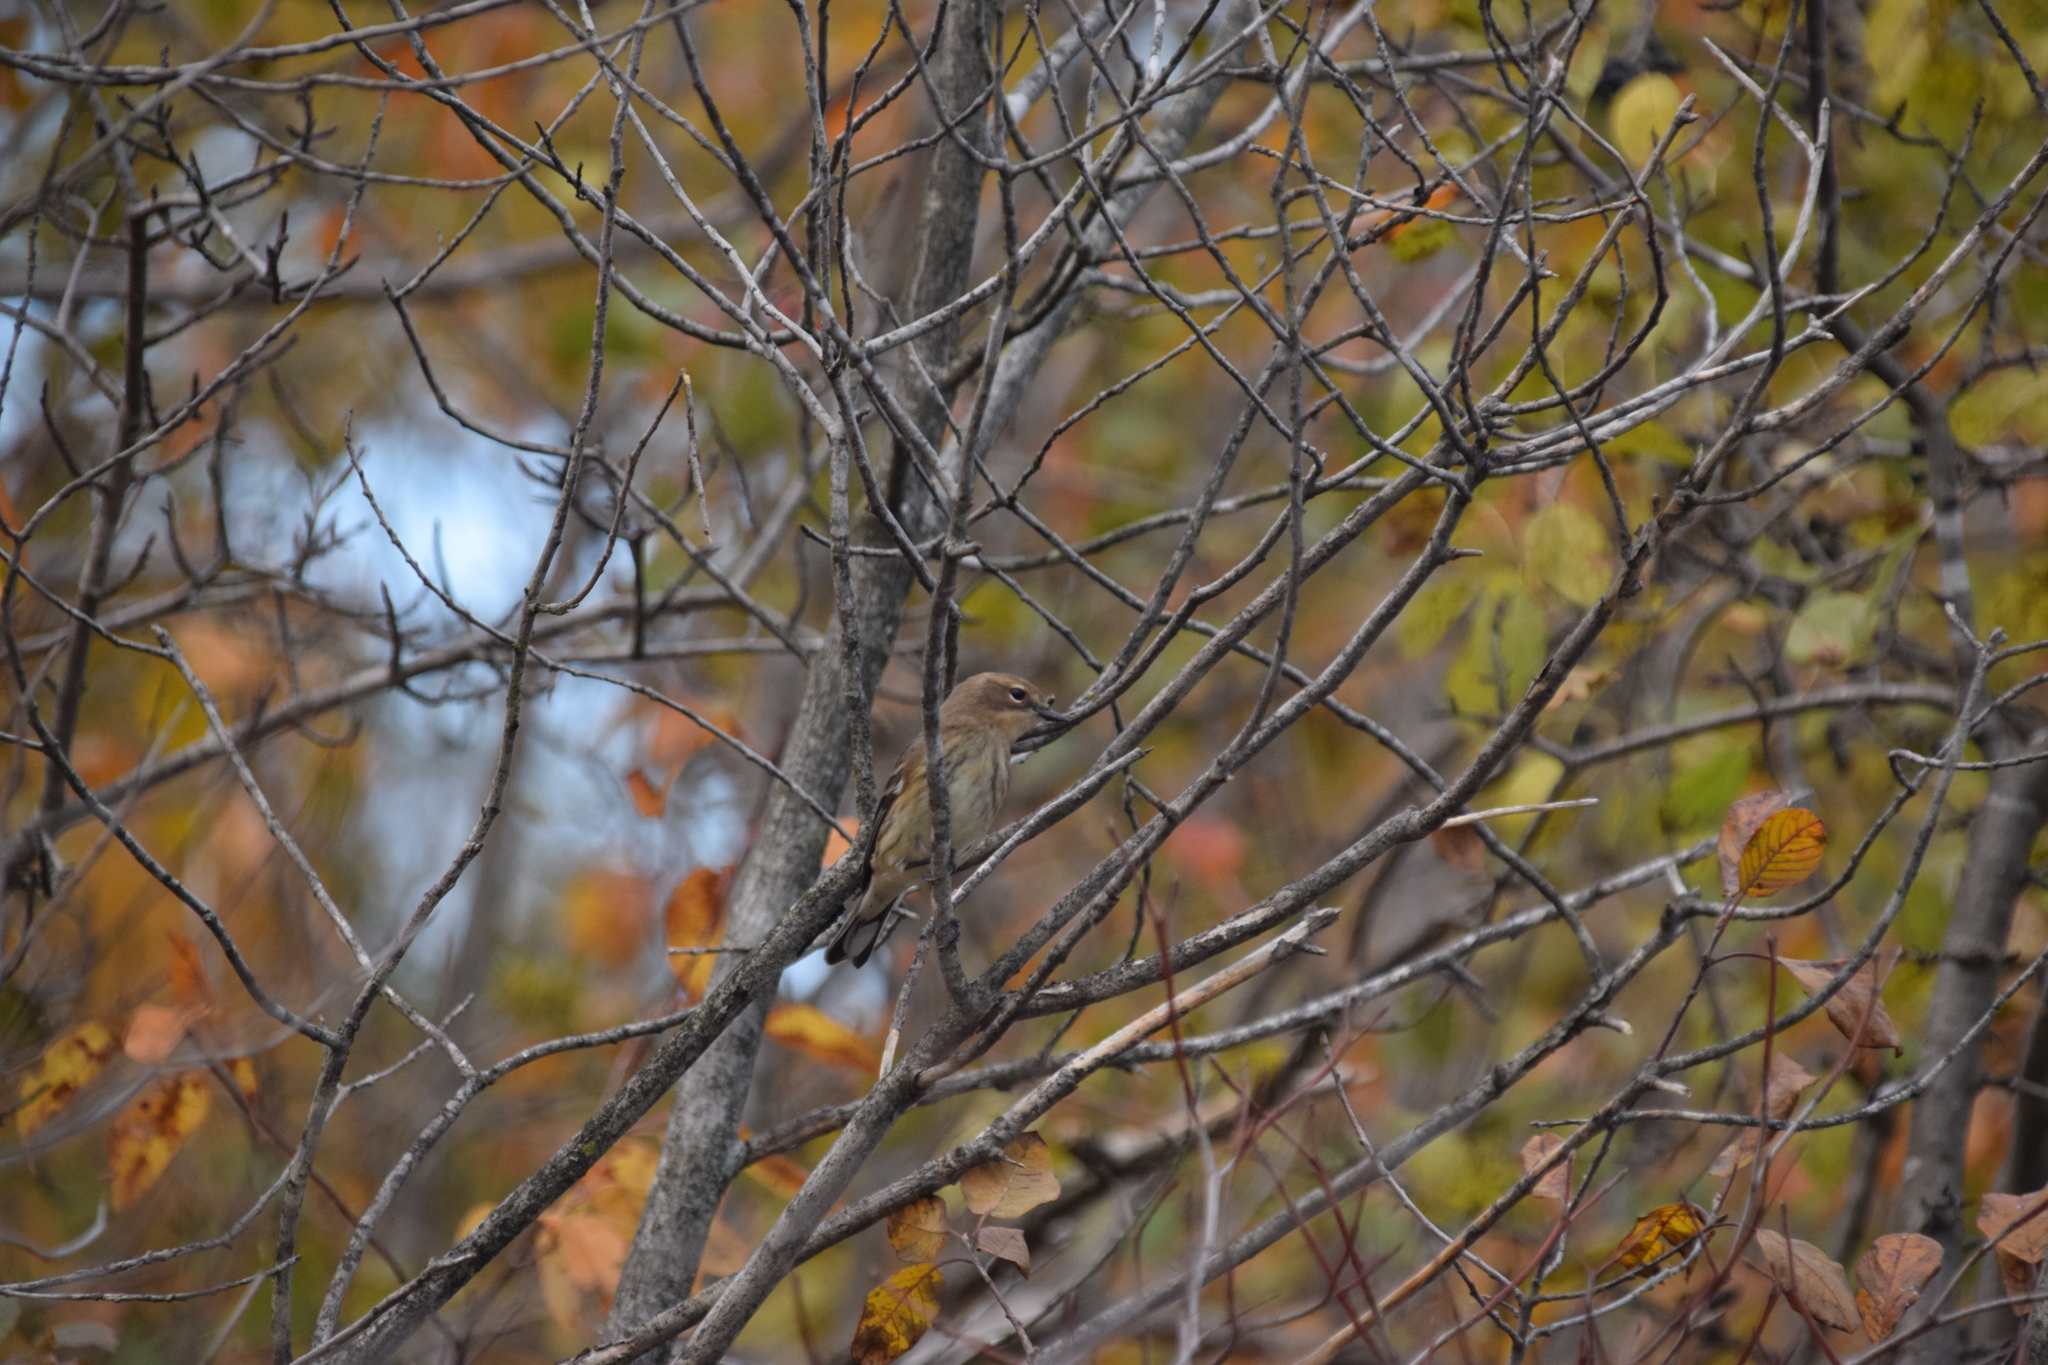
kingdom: Animalia
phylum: Chordata
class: Aves
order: Passeriformes
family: Parulidae
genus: Setophaga
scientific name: Setophaga coronata
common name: Myrtle warbler
